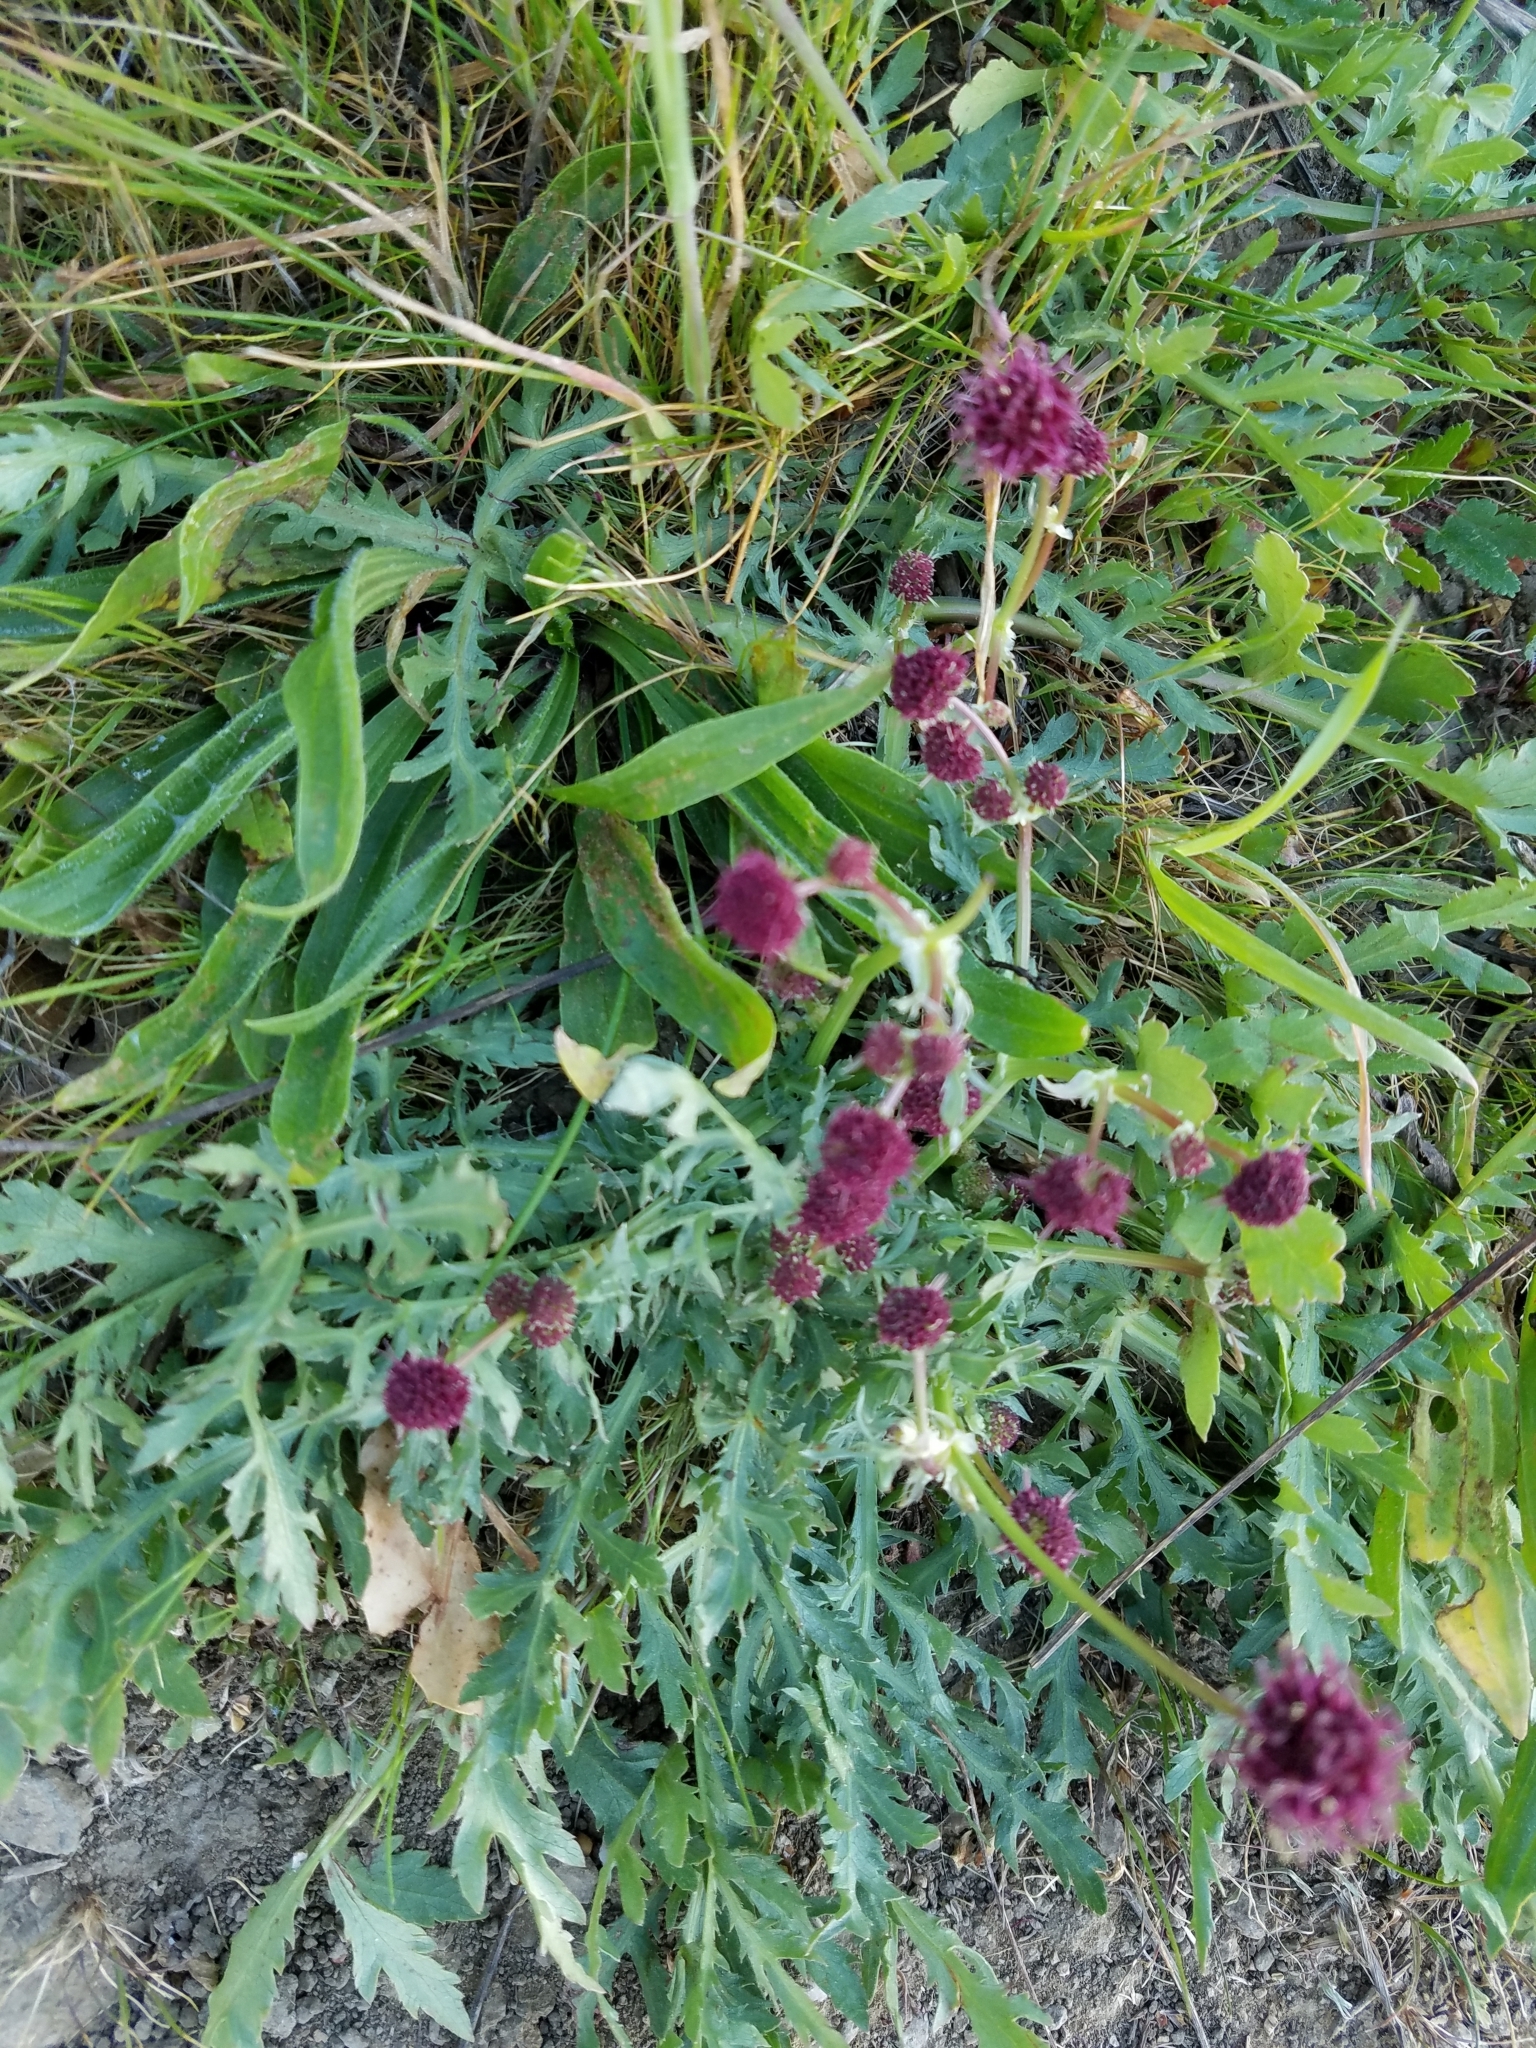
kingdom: Plantae
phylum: Tracheophyta
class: Magnoliopsida
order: Apiales
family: Apiaceae
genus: Sanicula
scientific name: Sanicula bipinnatifida
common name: Shoe-buttons
